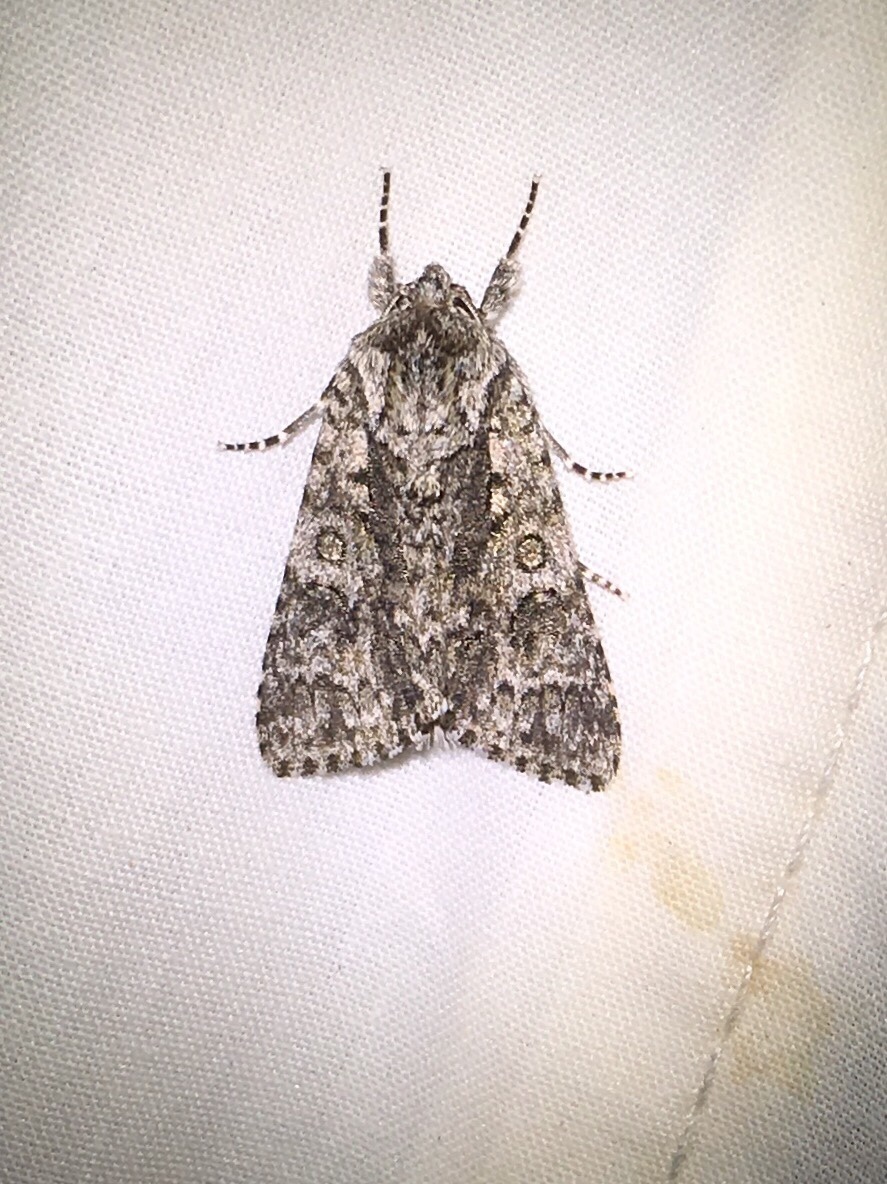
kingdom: Animalia
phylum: Arthropoda
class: Insecta
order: Lepidoptera
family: Noctuidae
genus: Acronicta
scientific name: Acronicta impressa
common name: Impressed dagger
